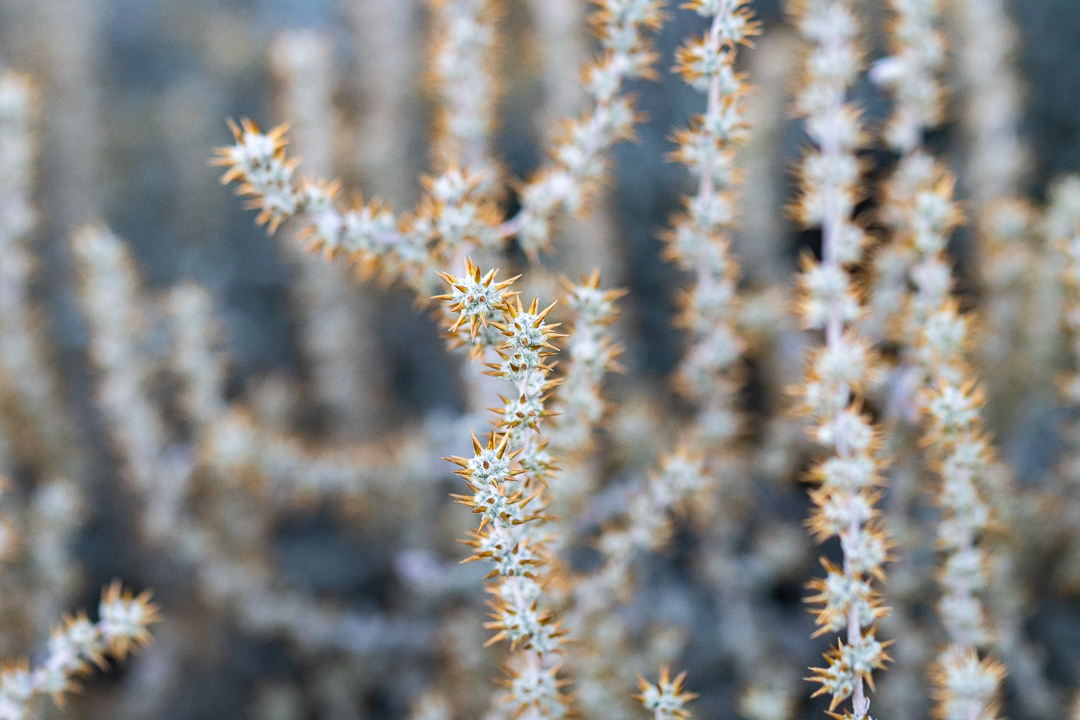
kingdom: Plantae
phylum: Tracheophyta
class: Magnoliopsida
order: Asterales
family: Asteraceae
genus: Seriphium
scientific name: Seriphium plumosum
